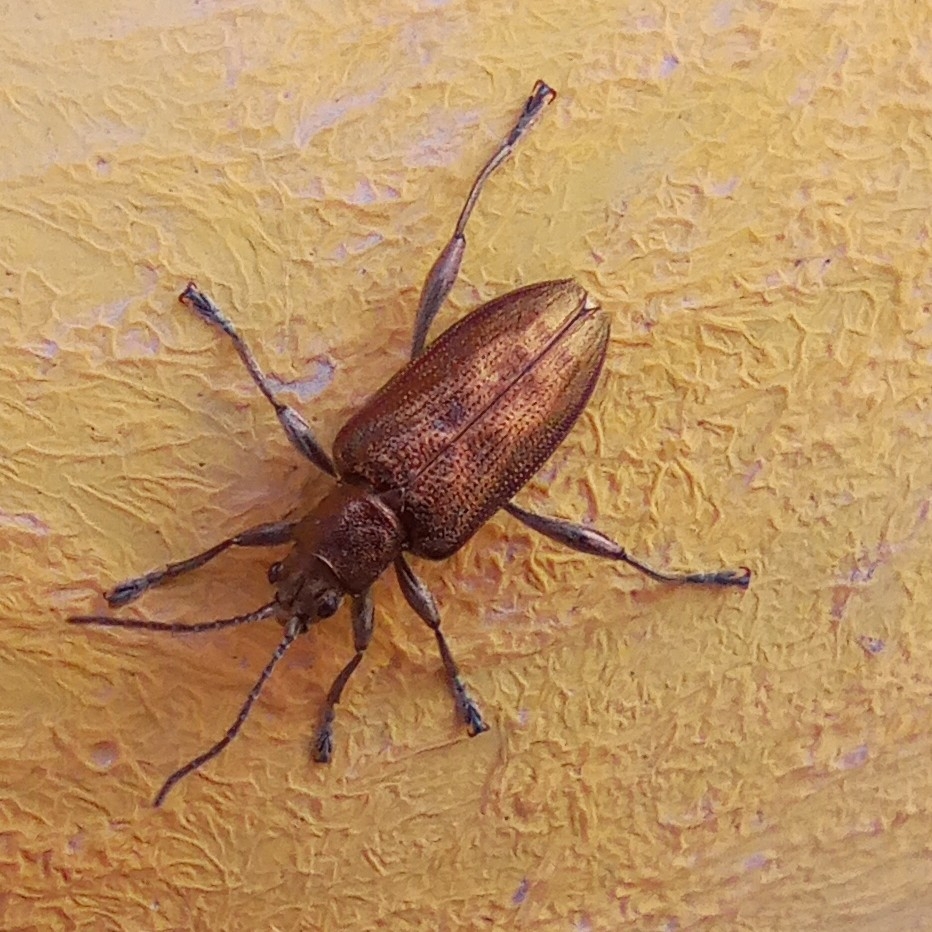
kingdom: Animalia
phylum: Arthropoda
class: Insecta
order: Coleoptera
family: Chrysomelidae
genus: Donacia
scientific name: Donacia marginata
